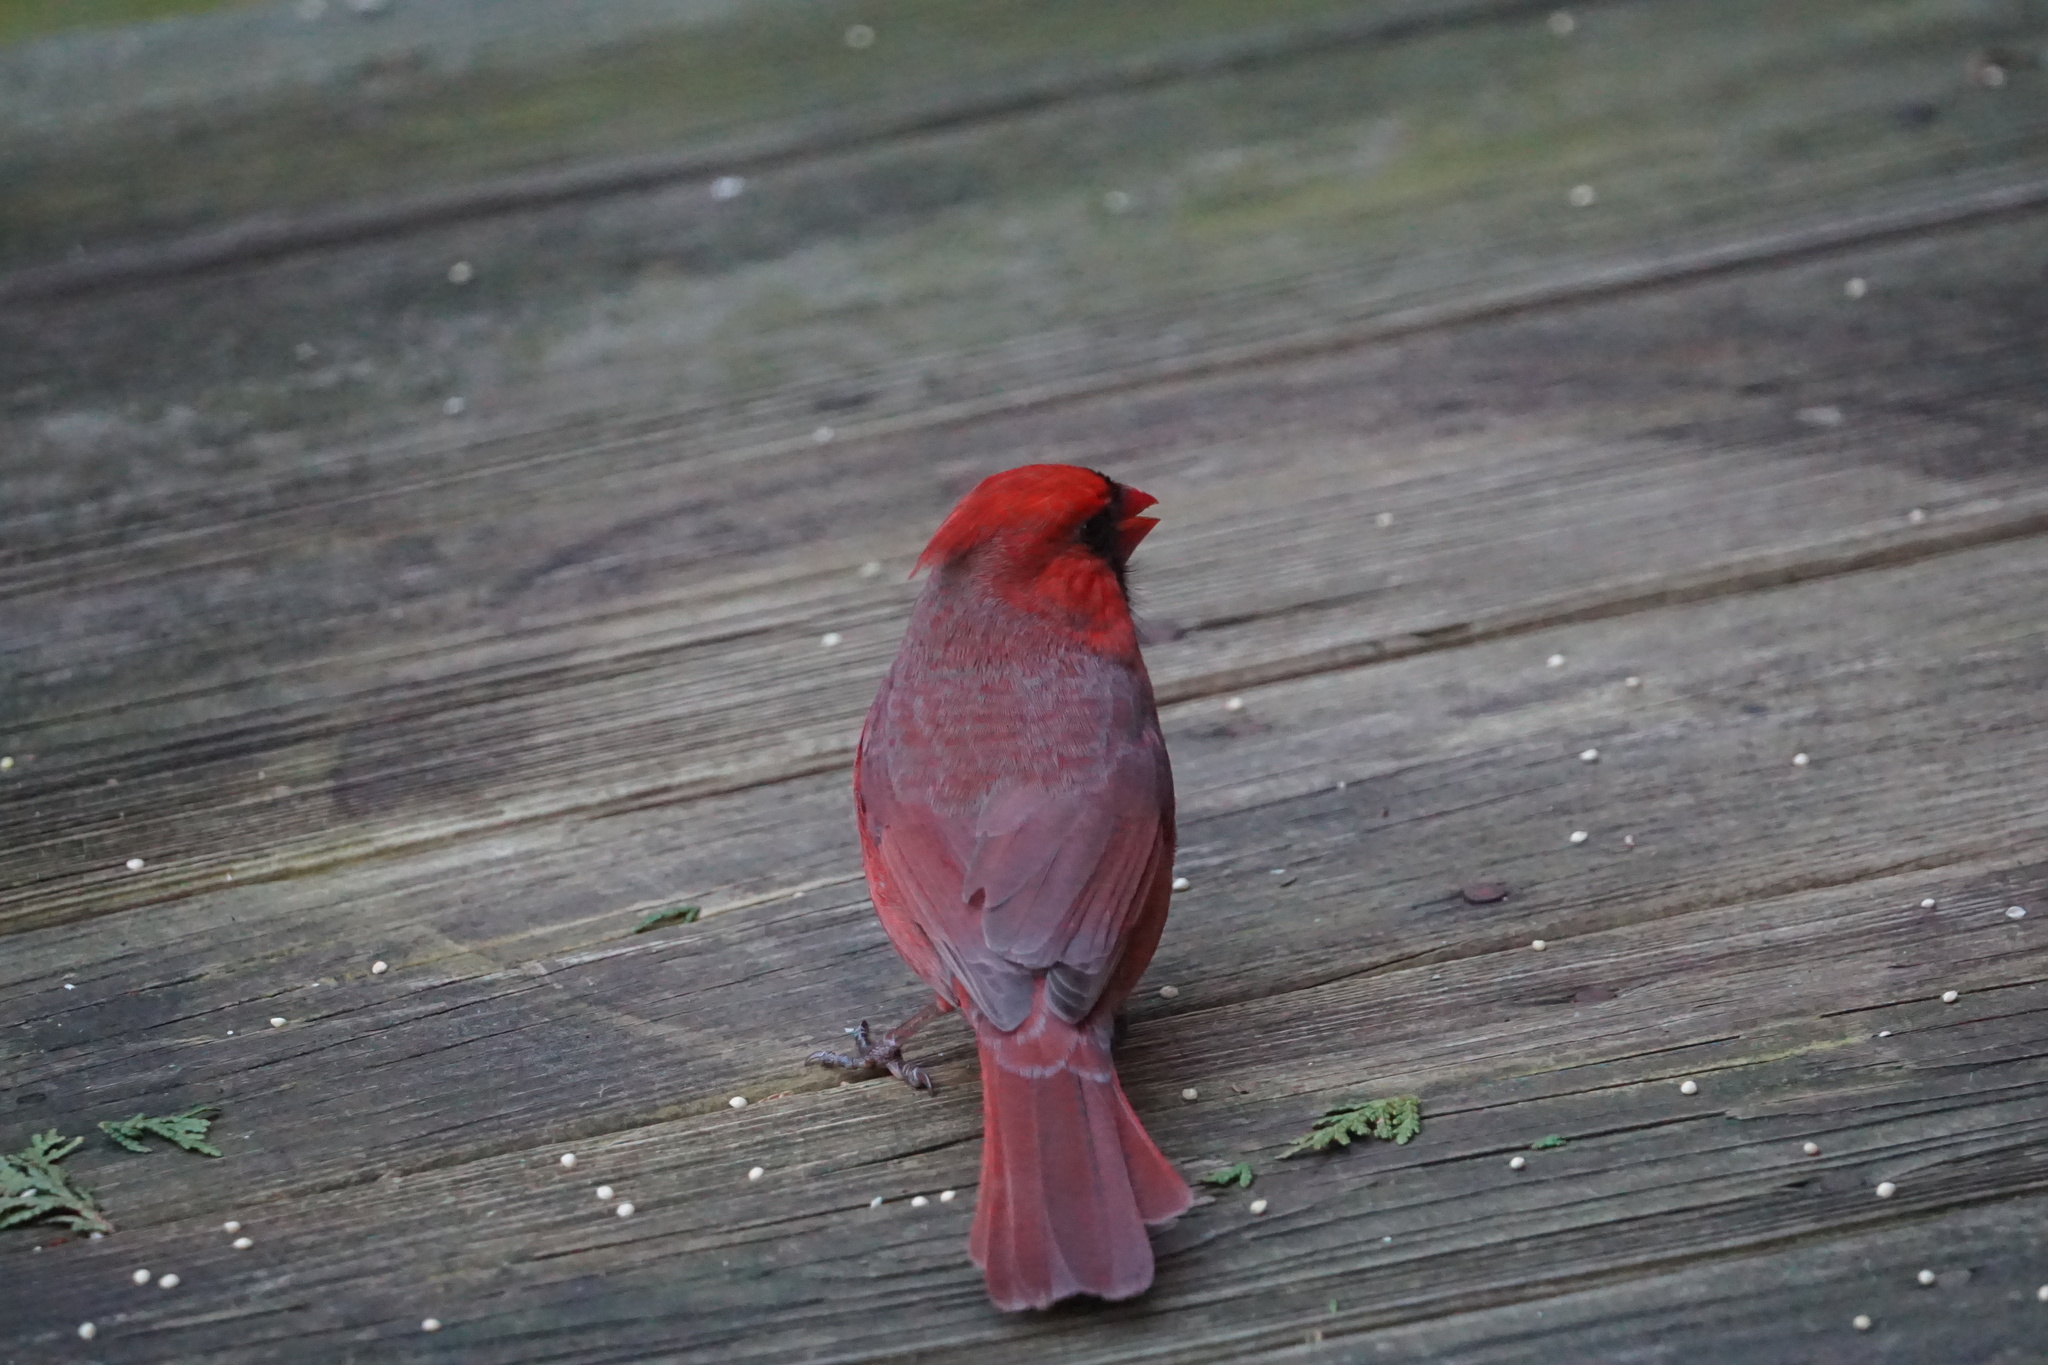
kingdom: Animalia
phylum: Chordata
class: Aves
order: Passeriformes
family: Cardinalidae
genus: Cardinalis
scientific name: Cardinalis cardinalis
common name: Northern cardinal
